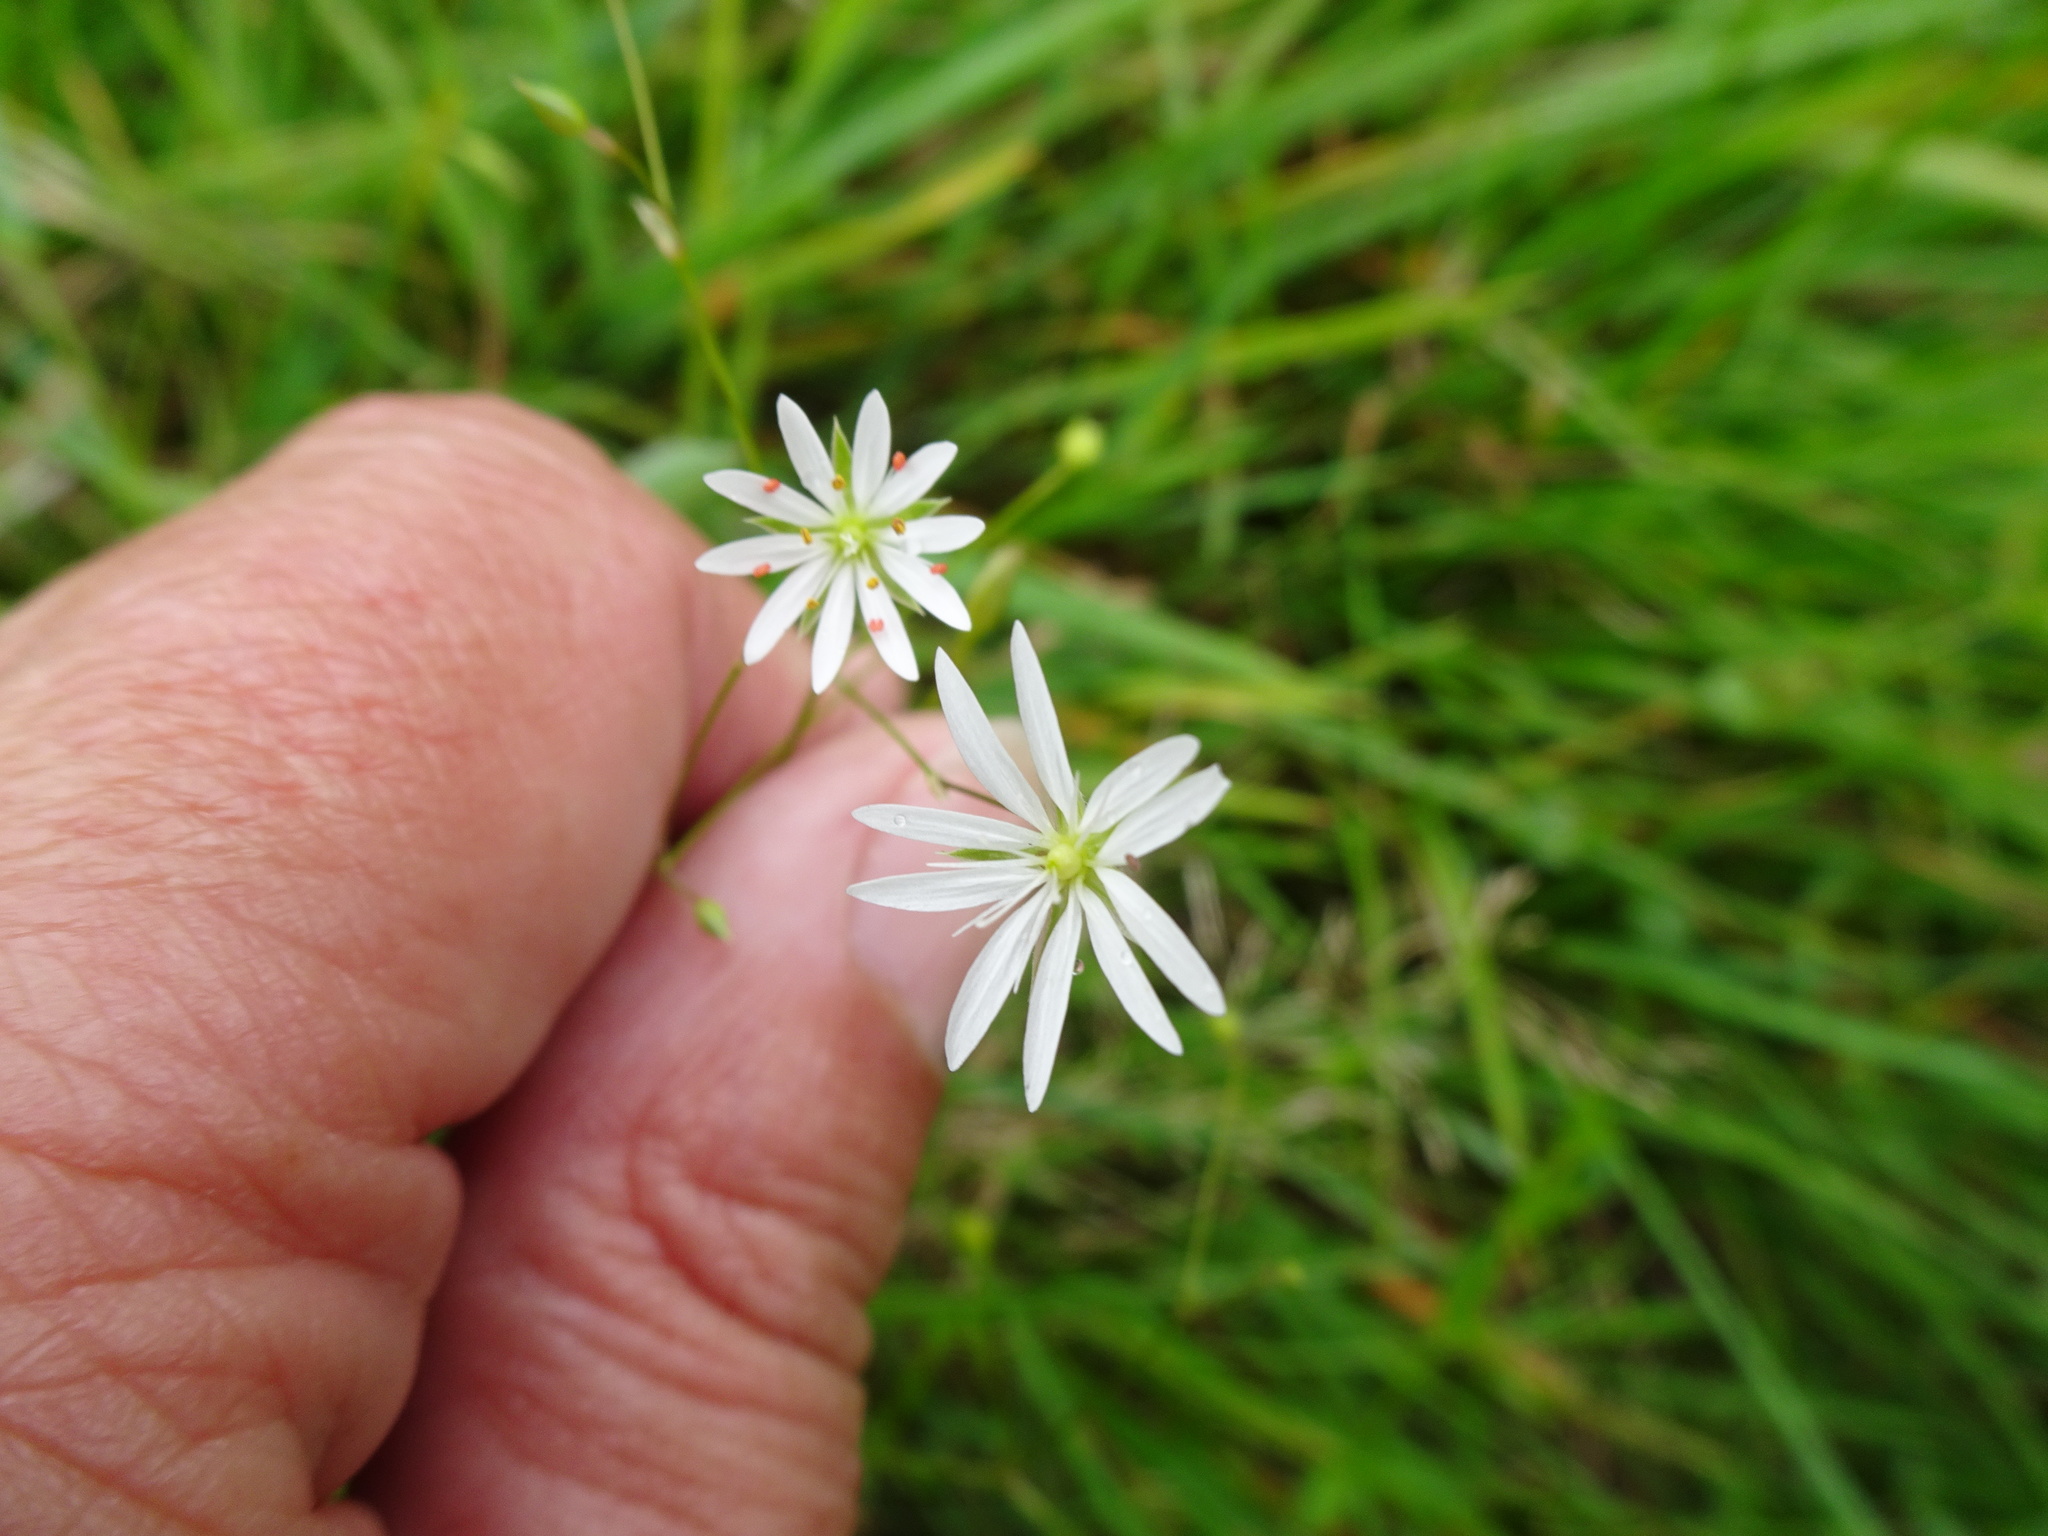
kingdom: Plantae
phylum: Tracheophyta
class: Magnoliopsida
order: Caryophyllales
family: Caryophyllaceae
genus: Stellaria
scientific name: Stellaria graminea
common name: Grass-like starwort
